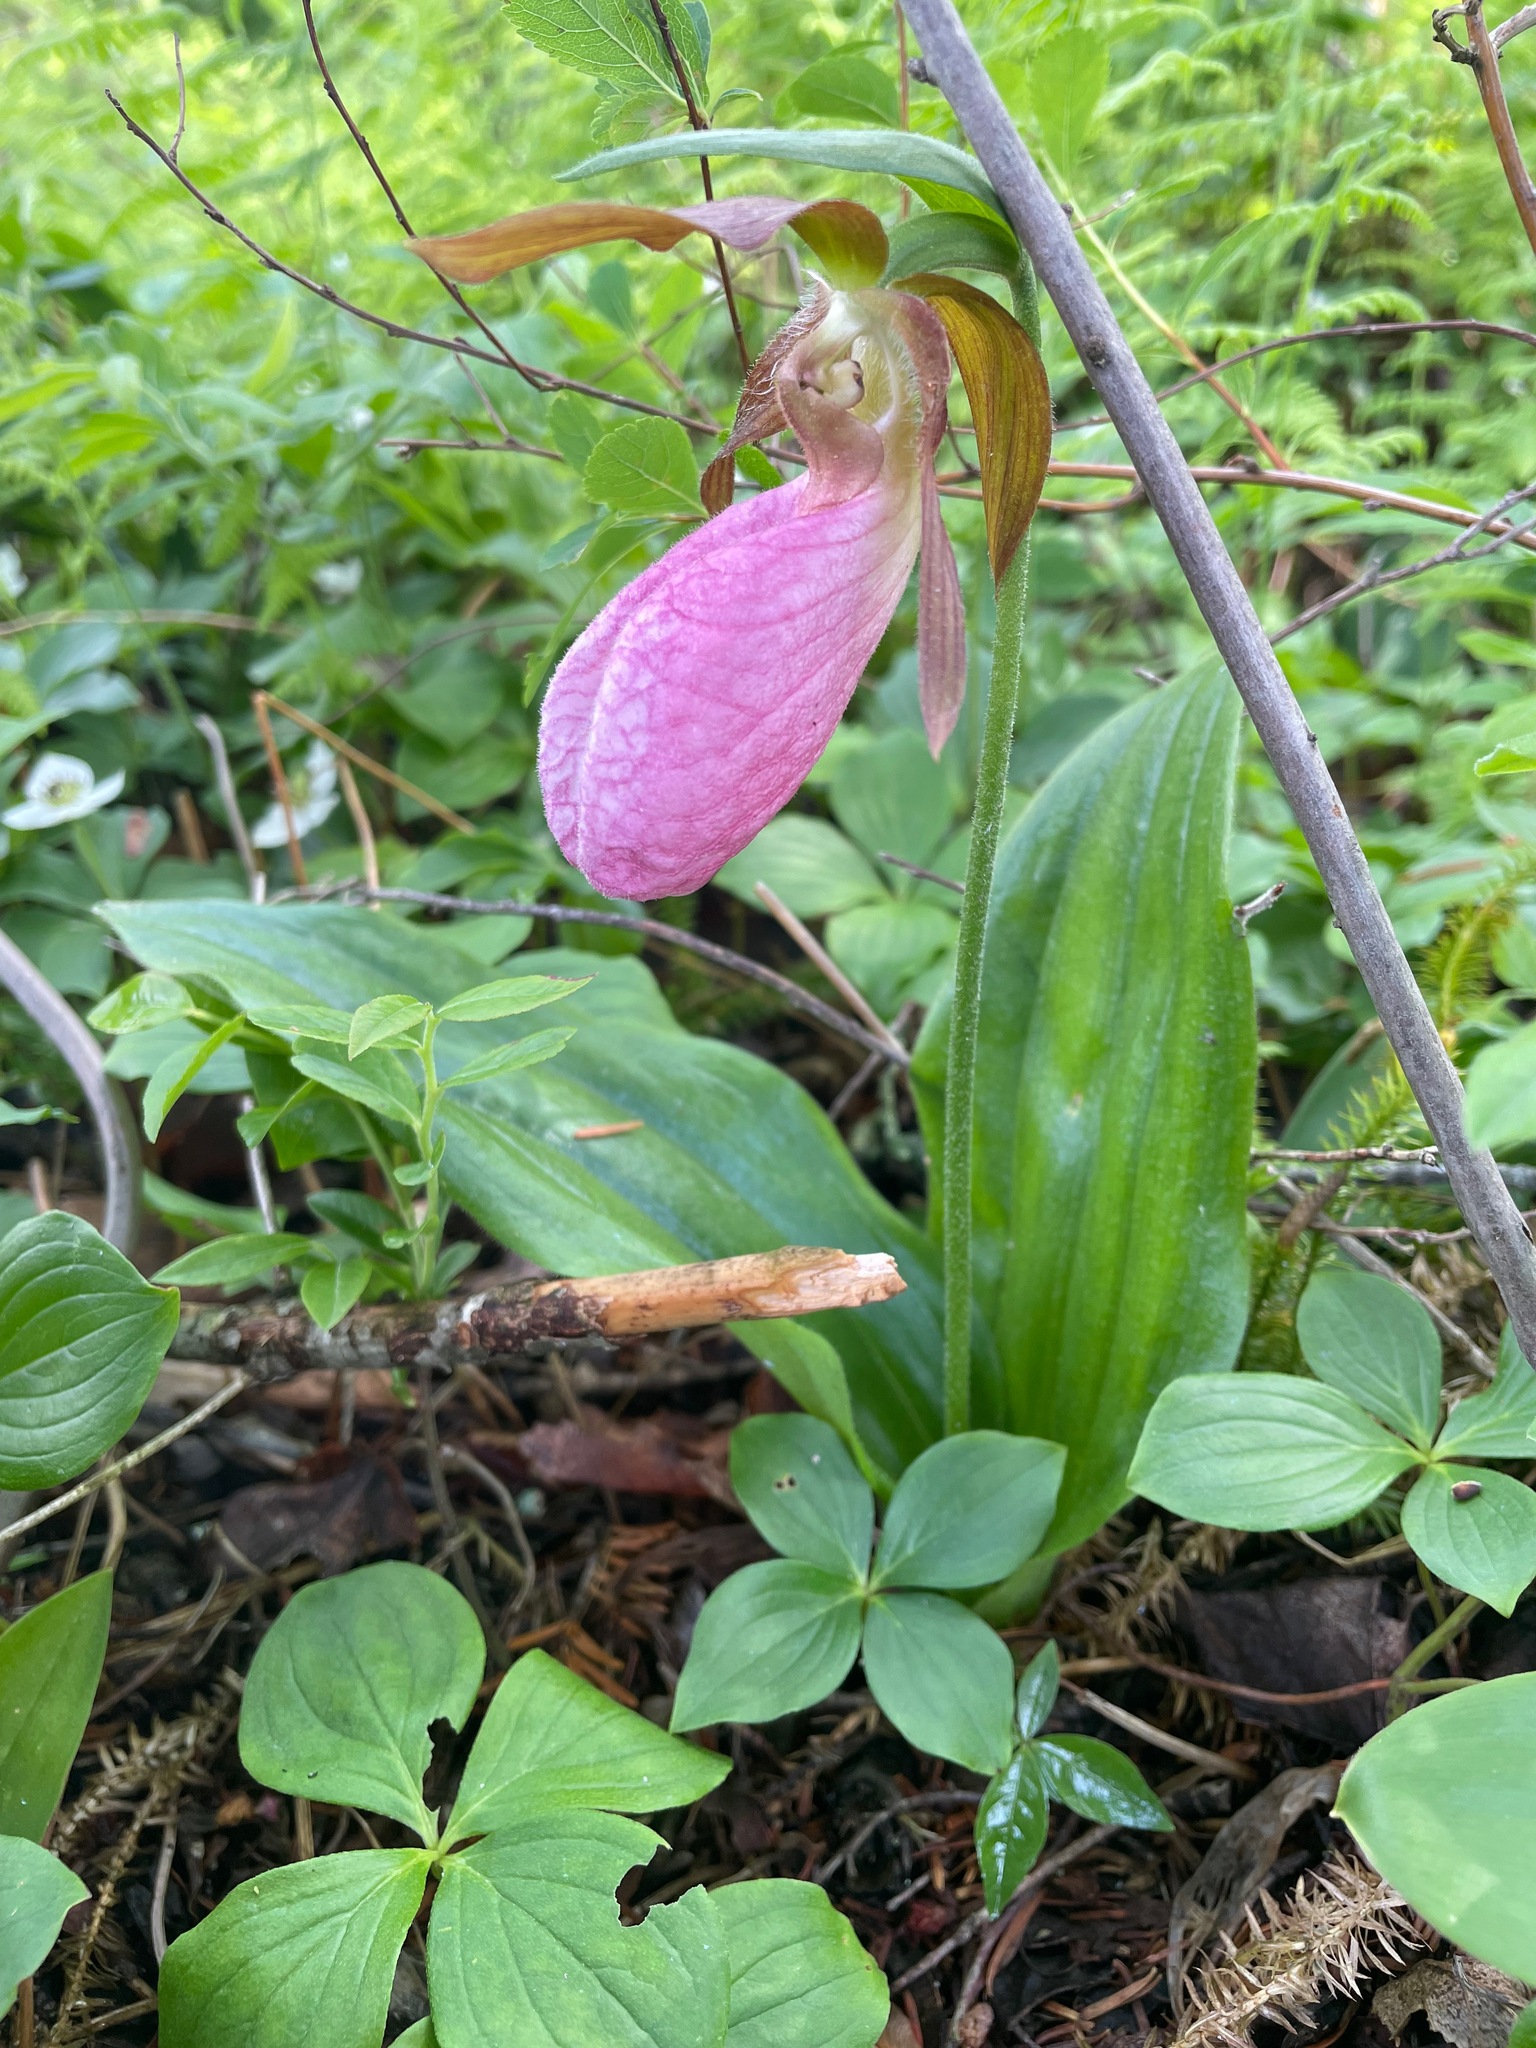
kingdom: Plantae
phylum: Tracheophyta
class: Liliopsida
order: Asparagales
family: Orchidaceae
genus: Cypripedium
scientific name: Cypripedium acaule
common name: Pink lady's-slipper
